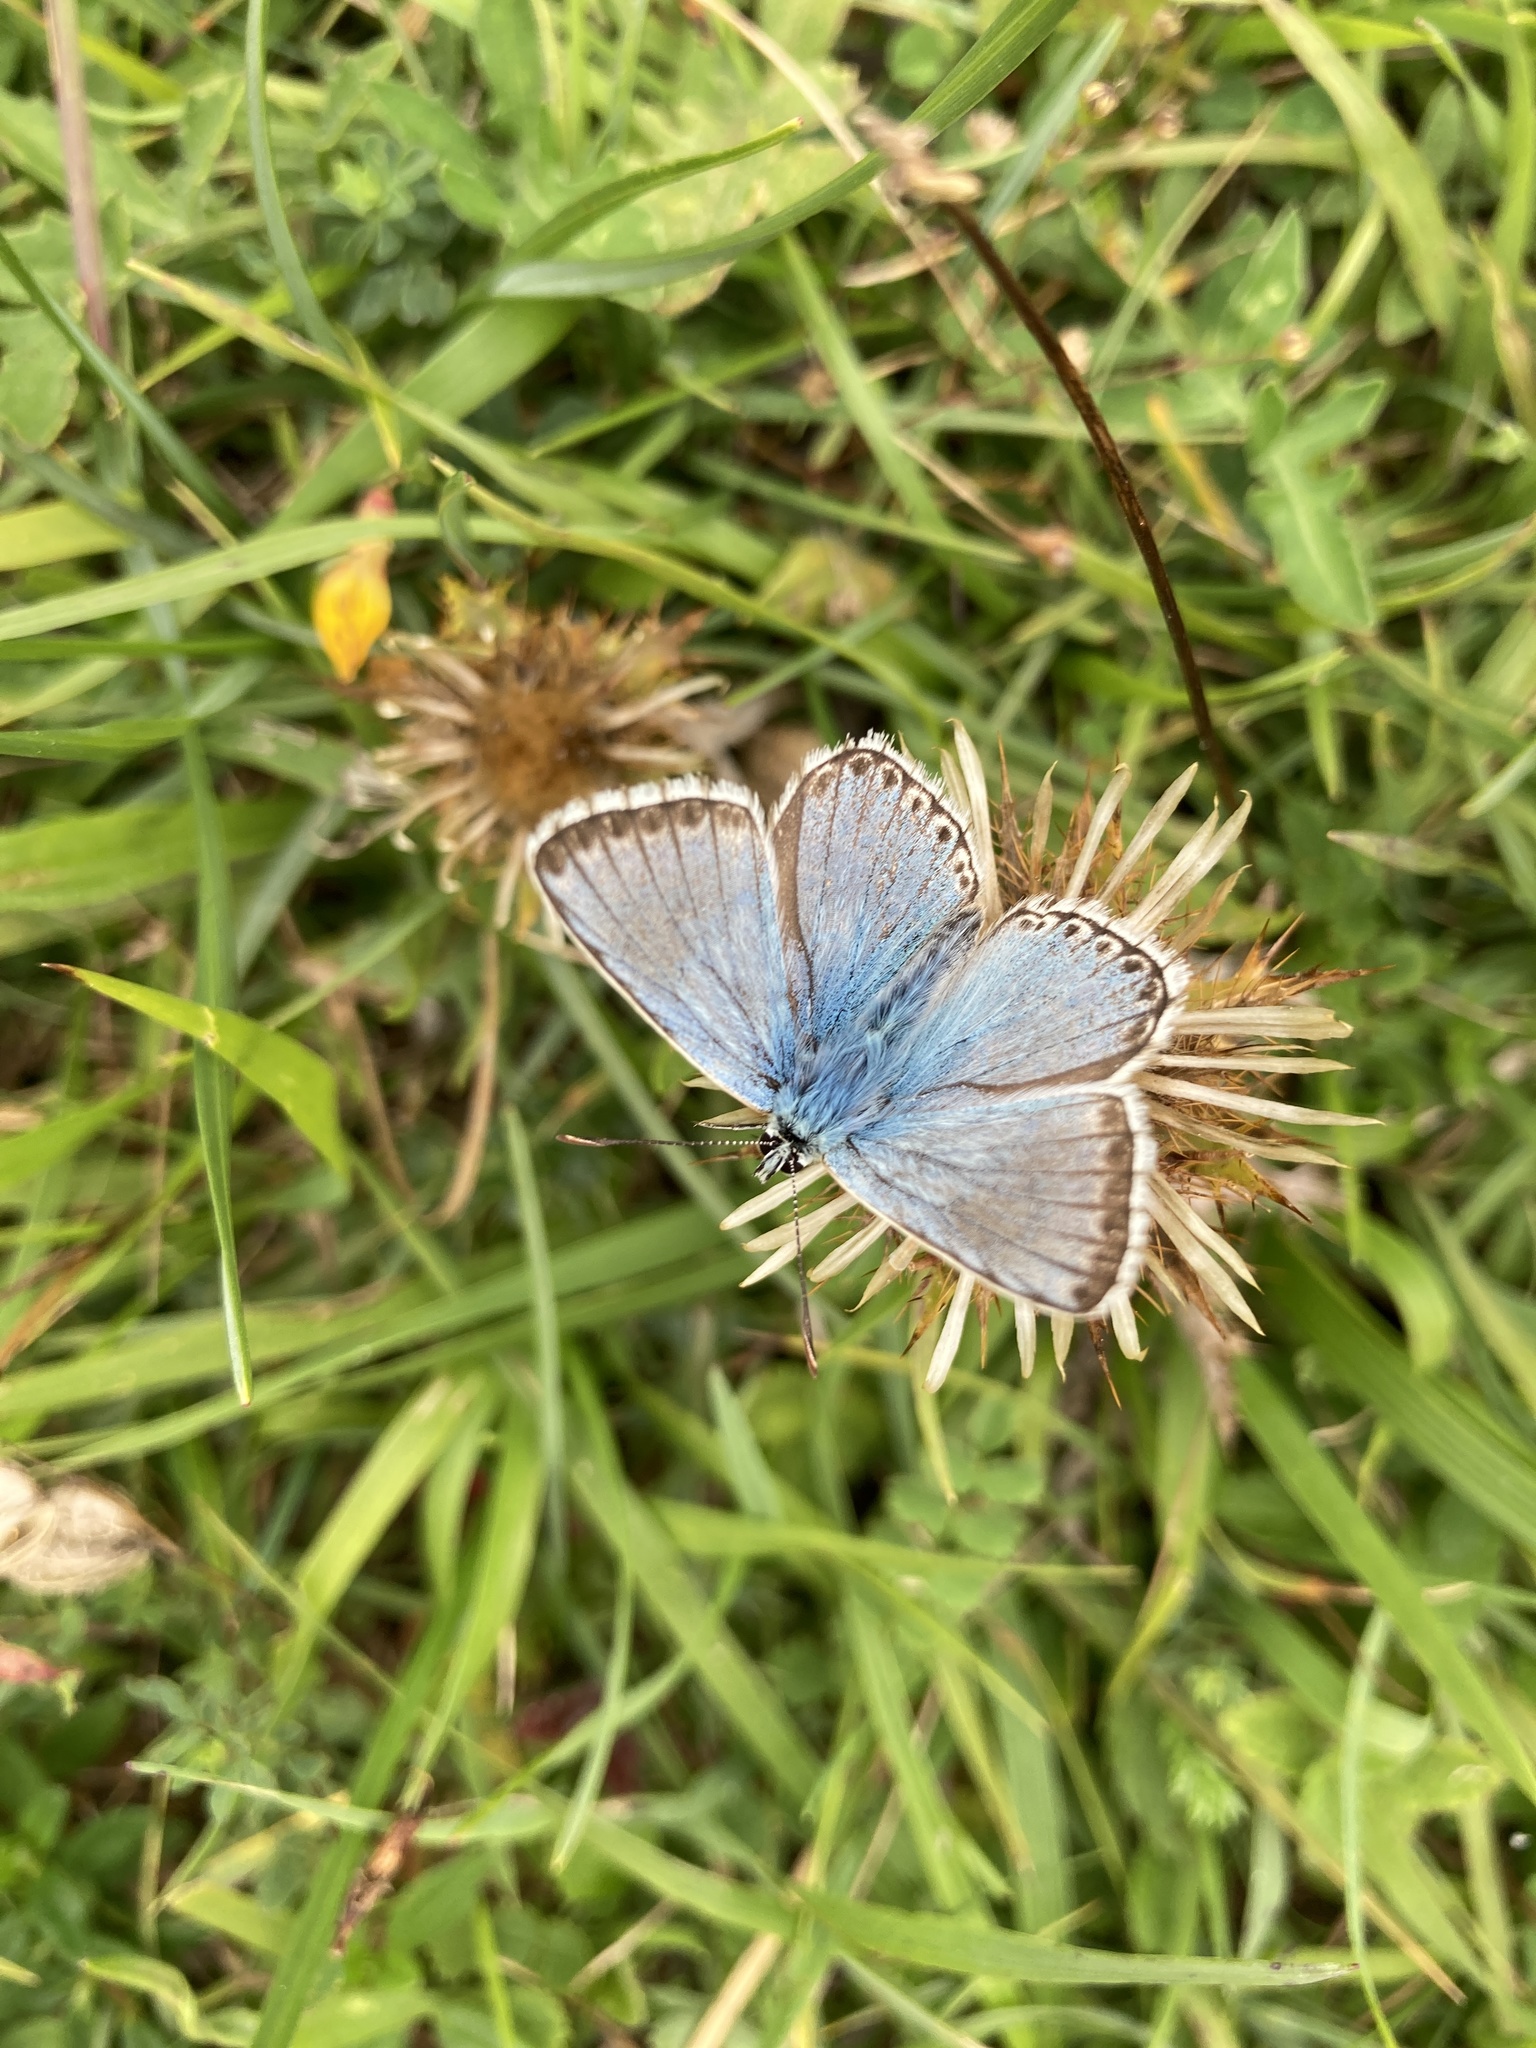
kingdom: Animalia
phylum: Arthropoda
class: Insecta
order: Lepidoptera
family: Lycaenidae
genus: Lysandra
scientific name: Lysandra coridon
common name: Chalkhill blue
